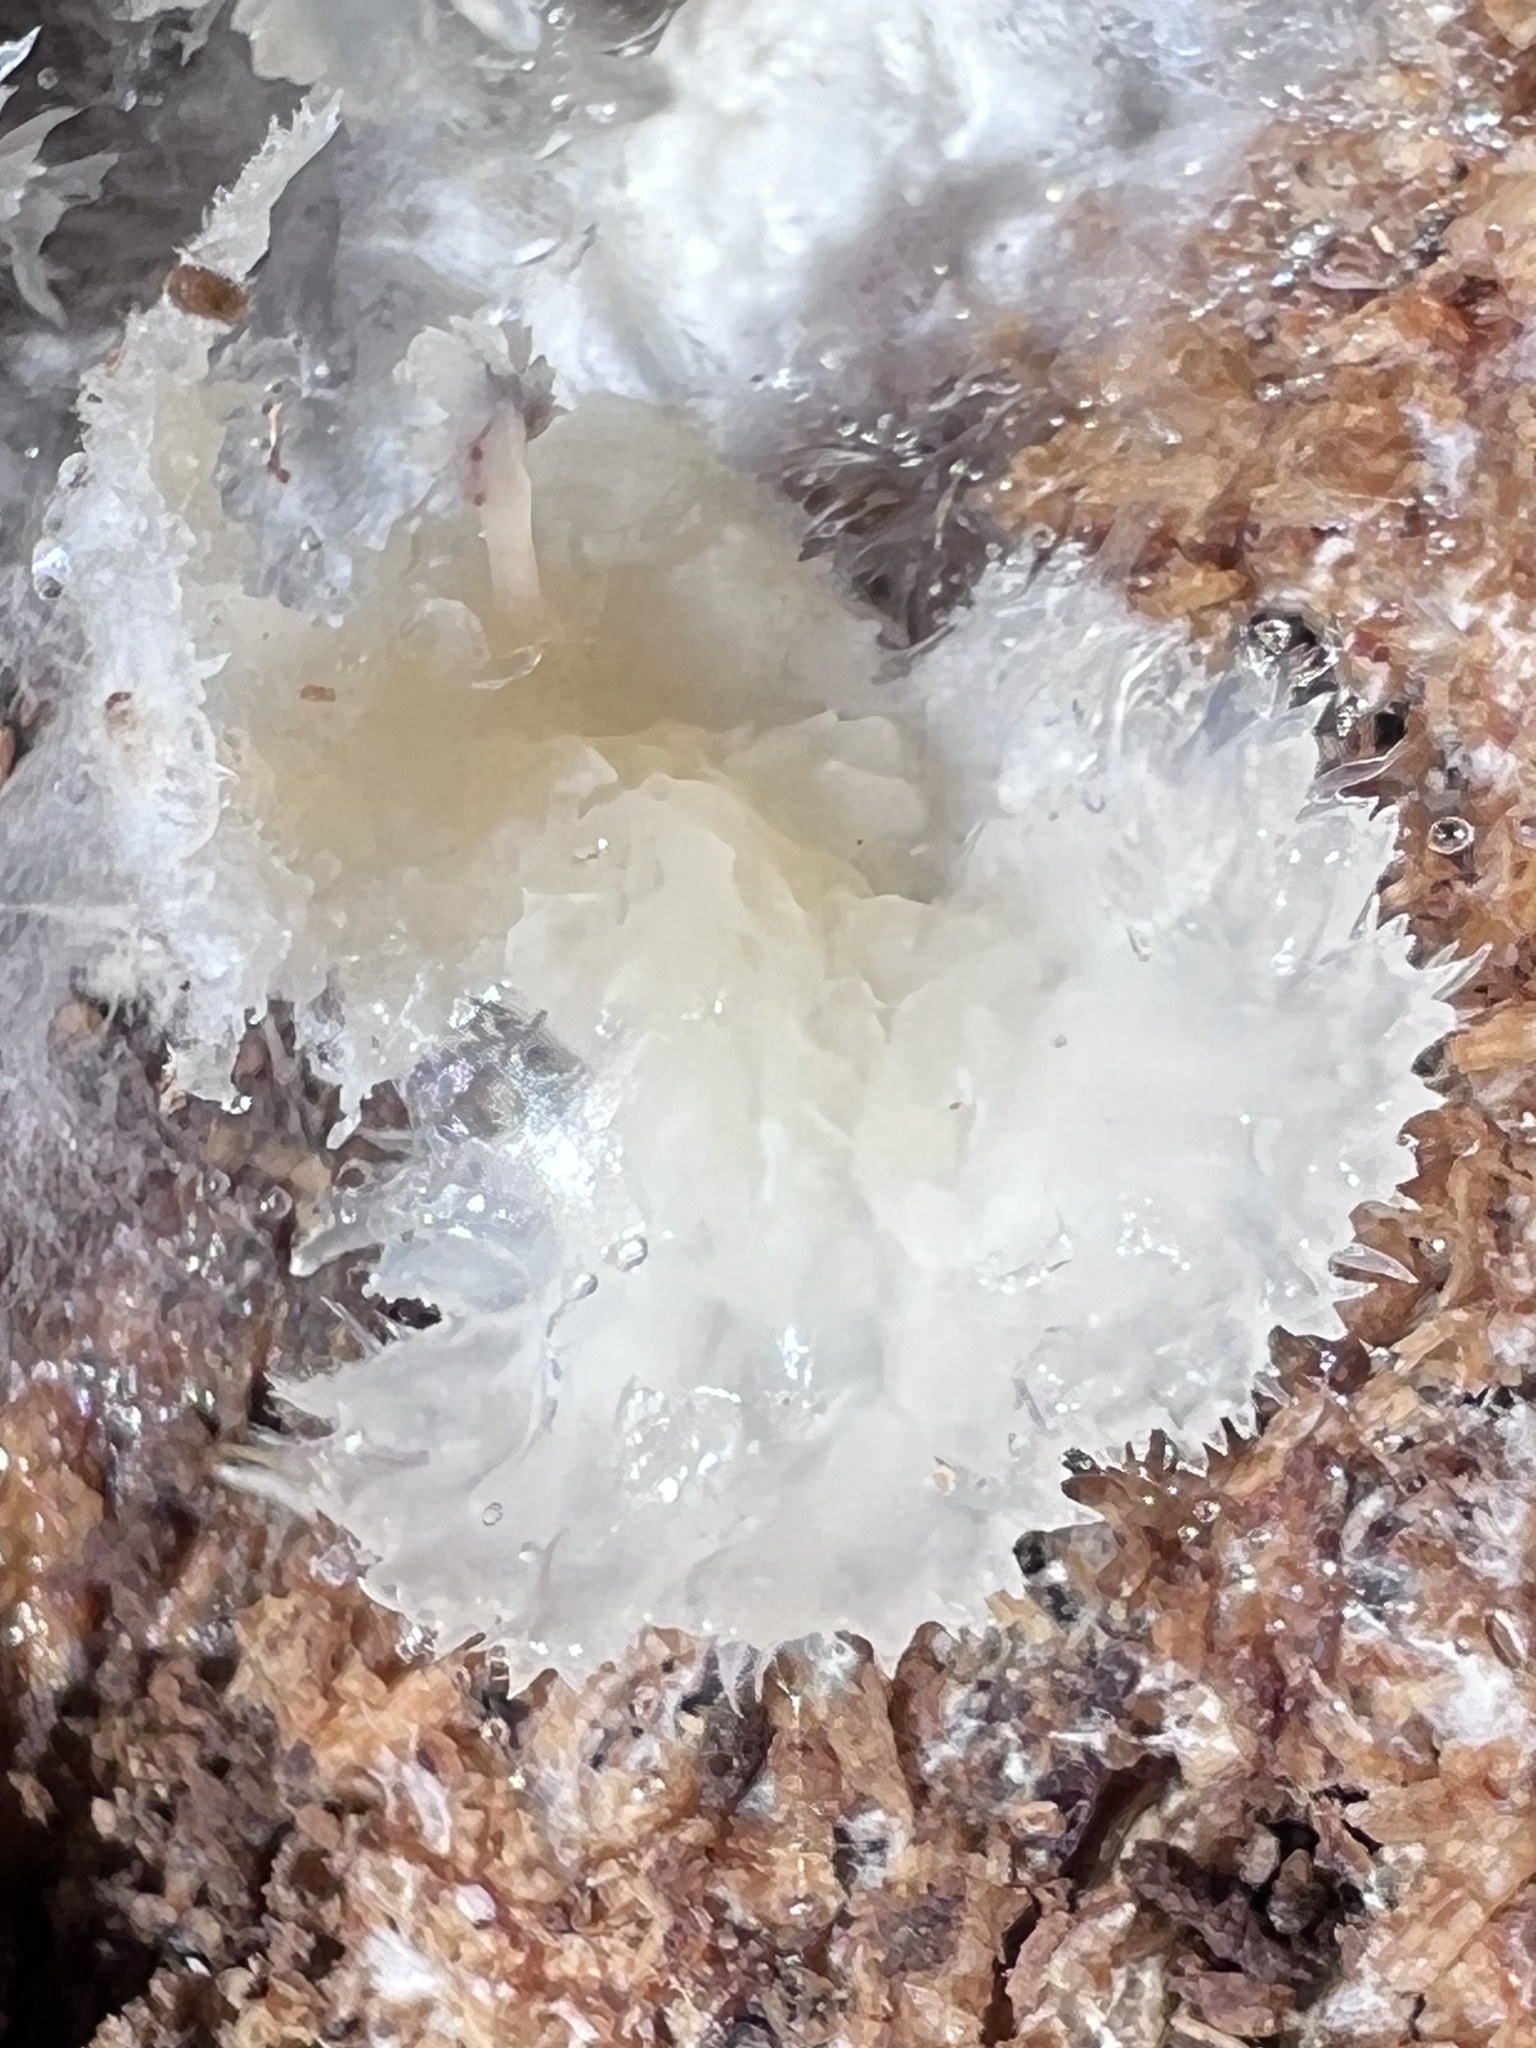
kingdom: Fungi
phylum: Basidiomycota
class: Agaricomycetes
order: Polyporales
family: Meruliaceae
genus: Phlebia
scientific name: Phlebia tremellosa
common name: Jelly rot
